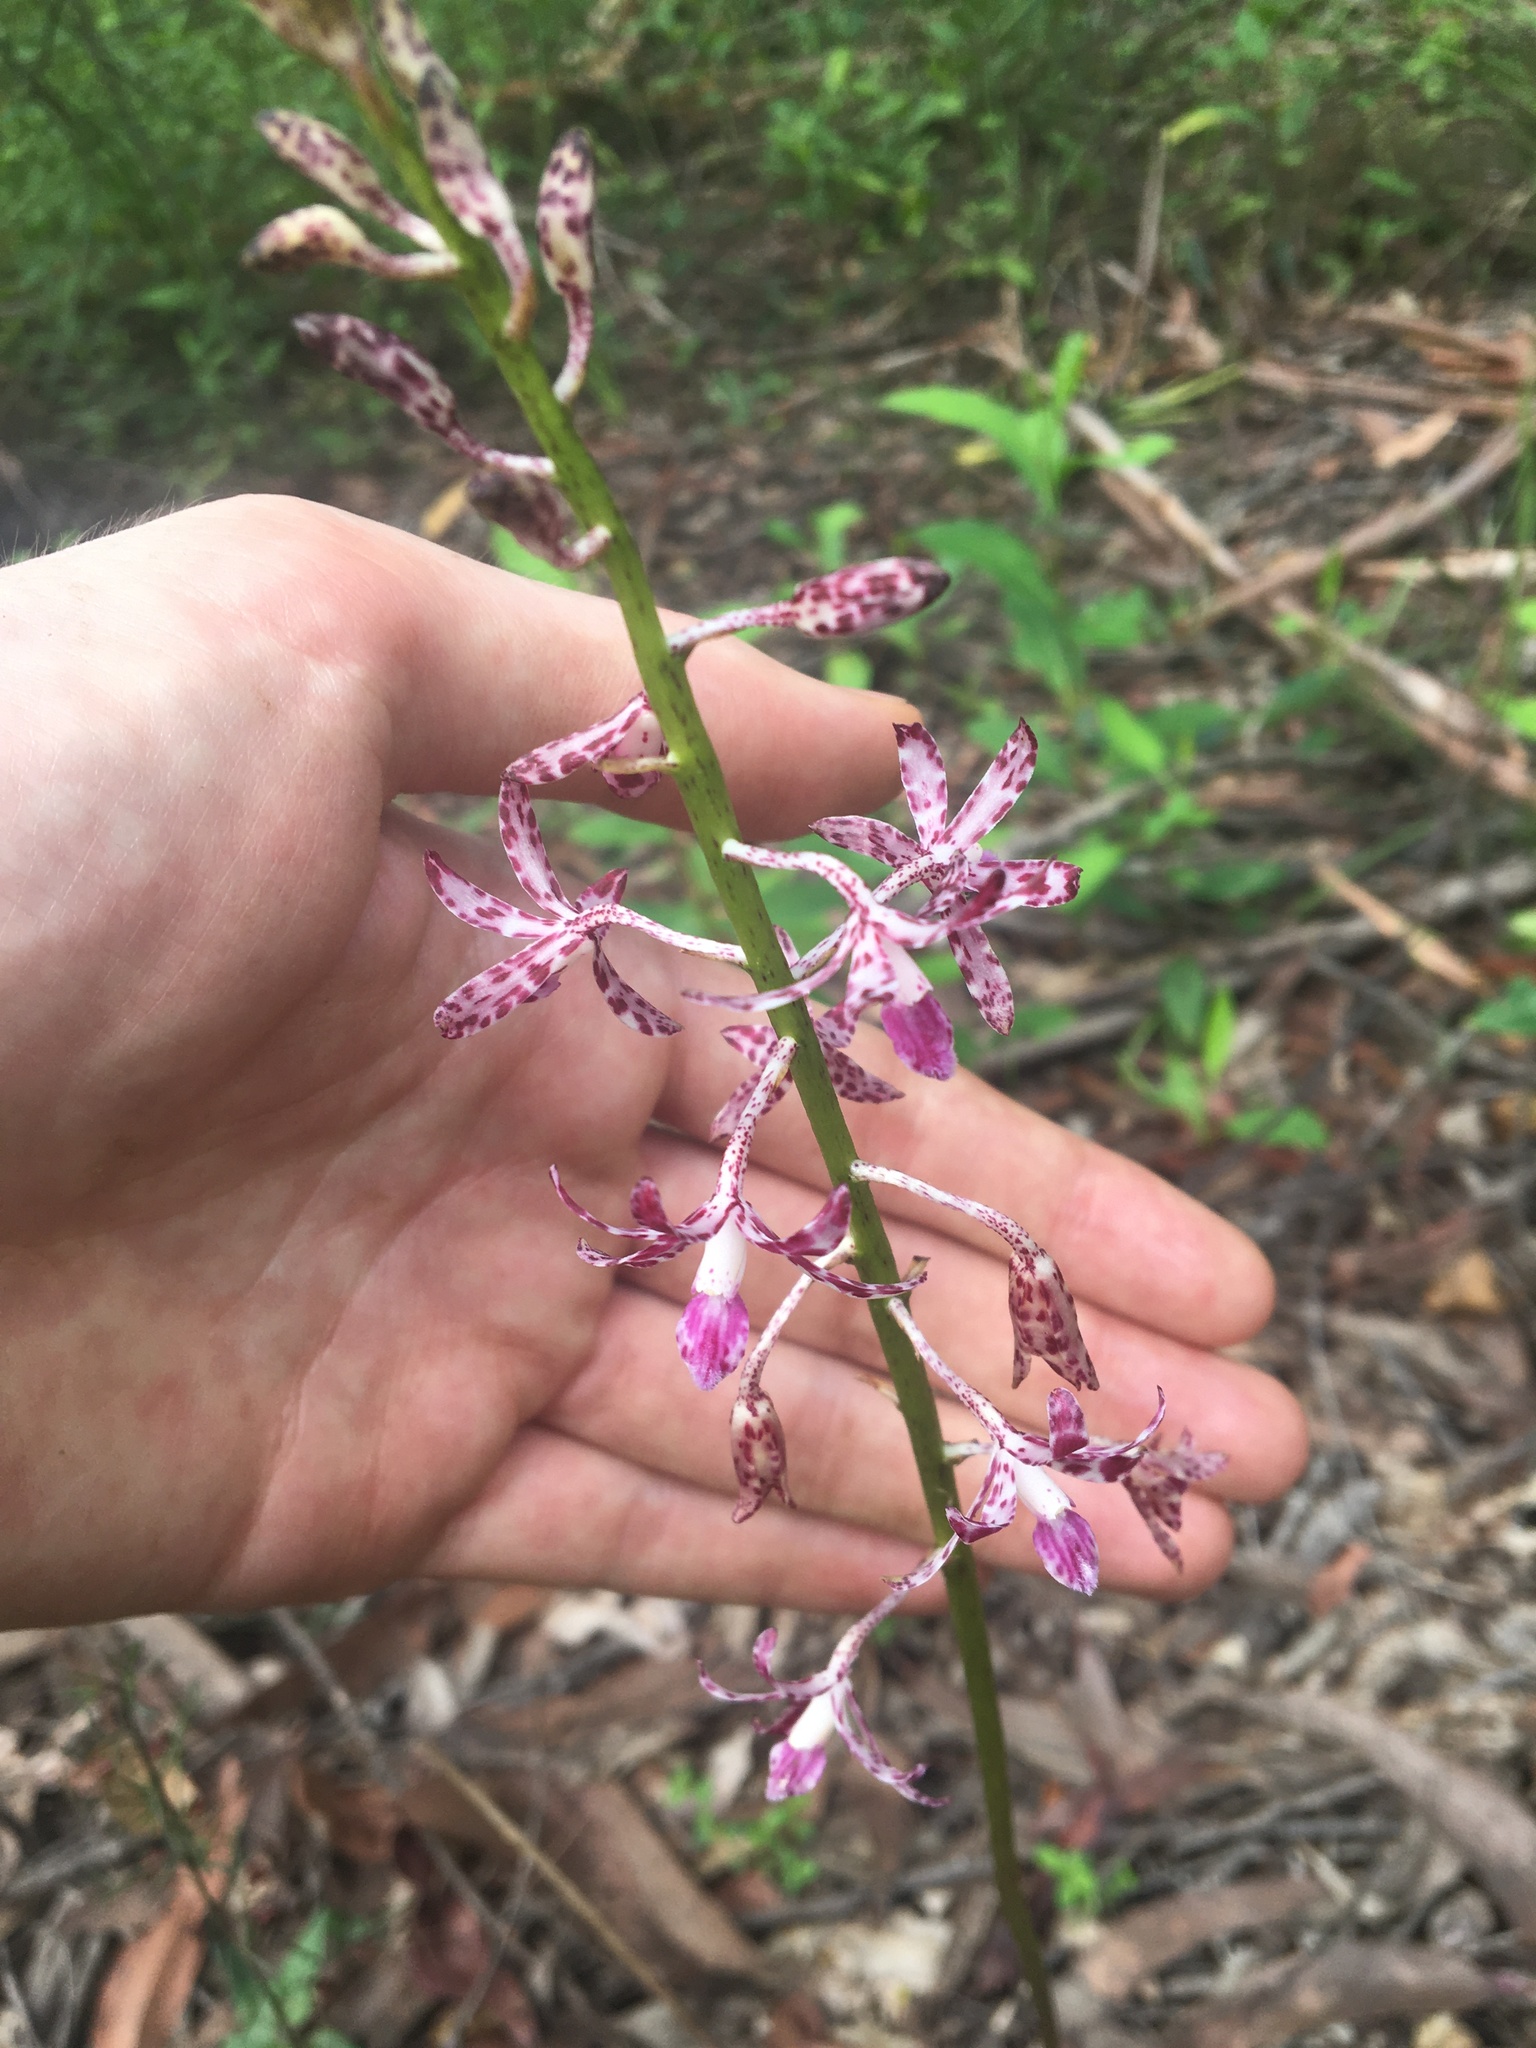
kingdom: Plantae
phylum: Tracheophyta
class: Liliopsida
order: Asparagales
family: Orchidaceae
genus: Dipodium
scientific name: Dipodium variegatum
